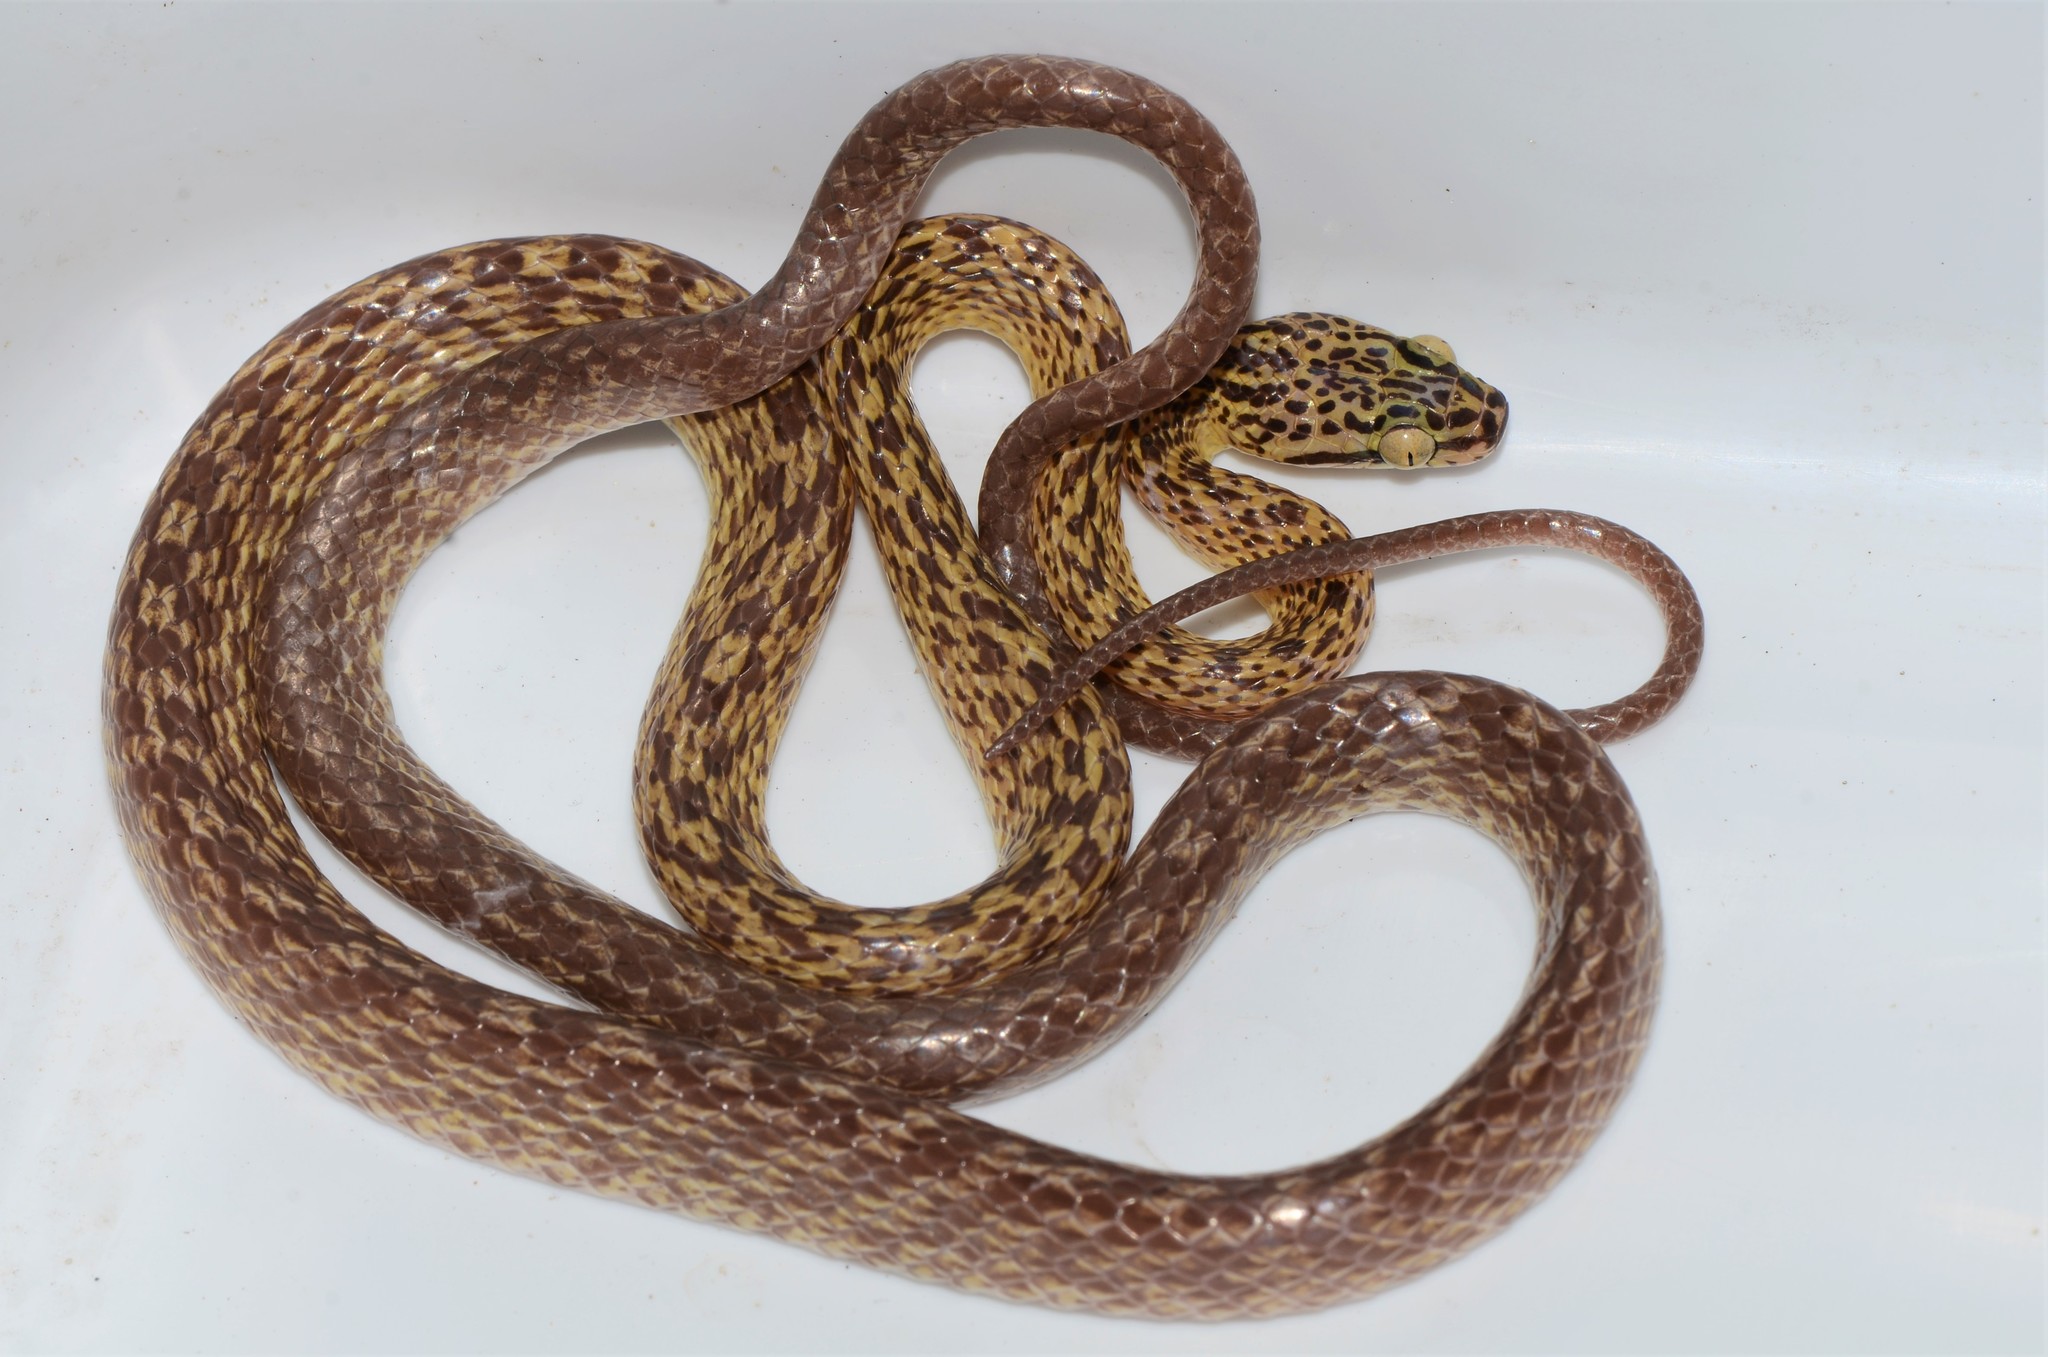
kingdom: Animalia
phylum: Chordata
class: Squamata
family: Colubridae
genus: Dipsadoboa
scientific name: Dipsadoboa flavida
